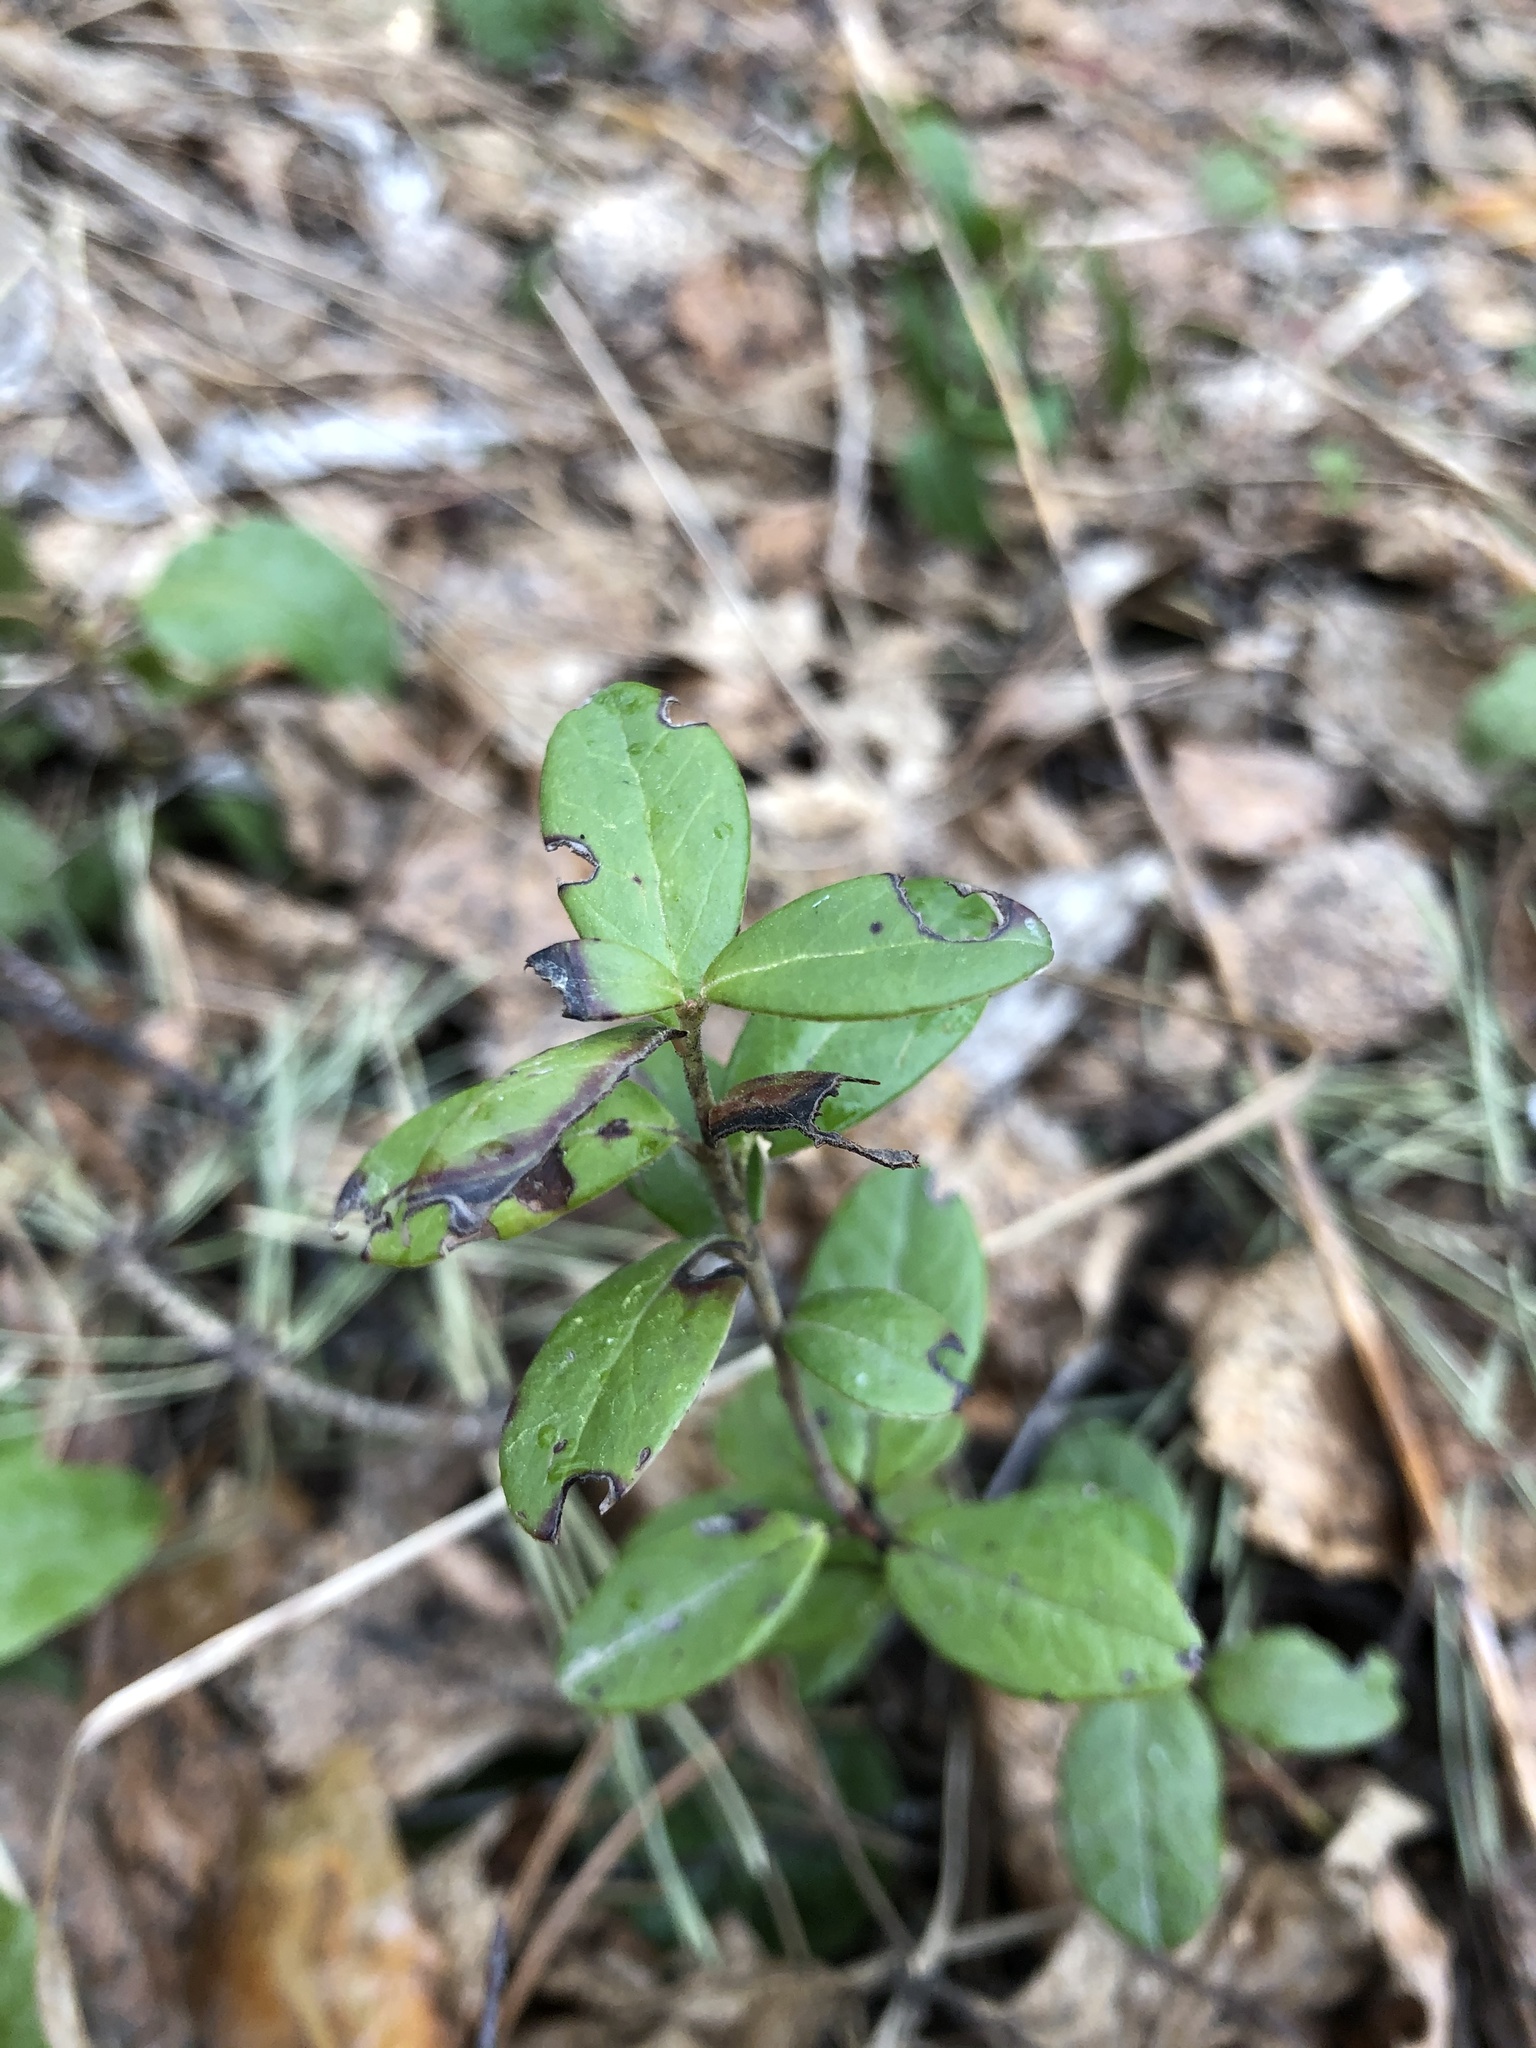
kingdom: Plantae
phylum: Tracheophyta
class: Magnoliopsida
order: Ericales
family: Ericaceae
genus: Vaccinium
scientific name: Vaccinium vitis-idaea
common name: Cowberry
